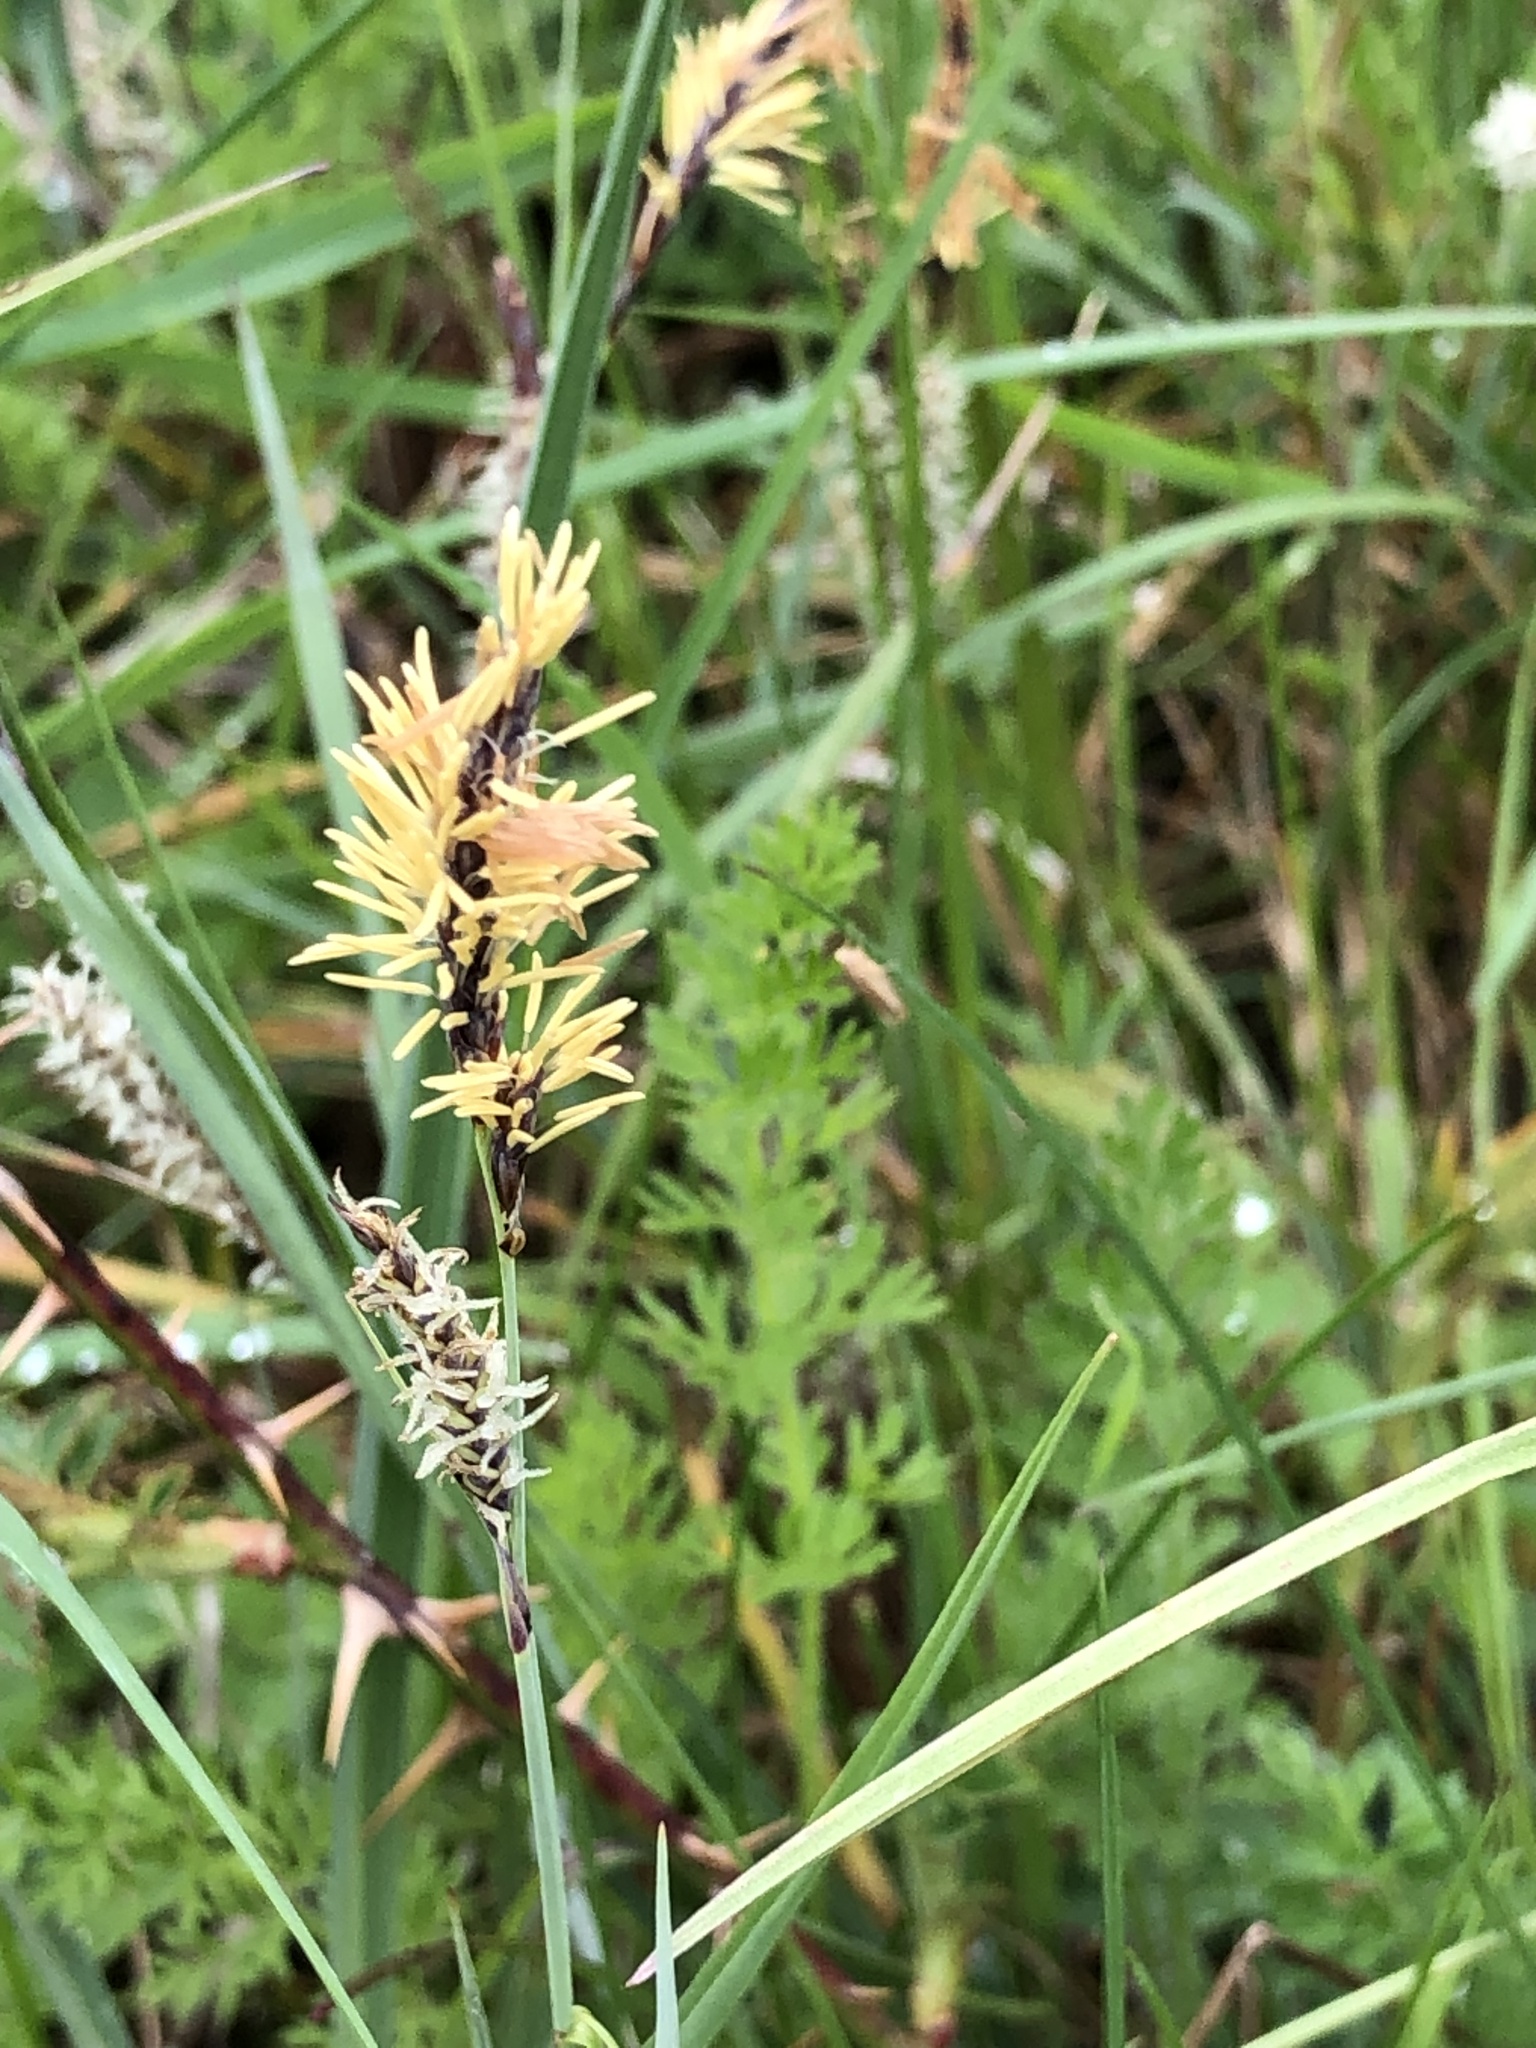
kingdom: Plantae
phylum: Tracheophyta
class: Liliopsida
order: Poales
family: Cyperaceae
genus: Carex
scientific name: Carex caryophyllea
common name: Spring sedge
